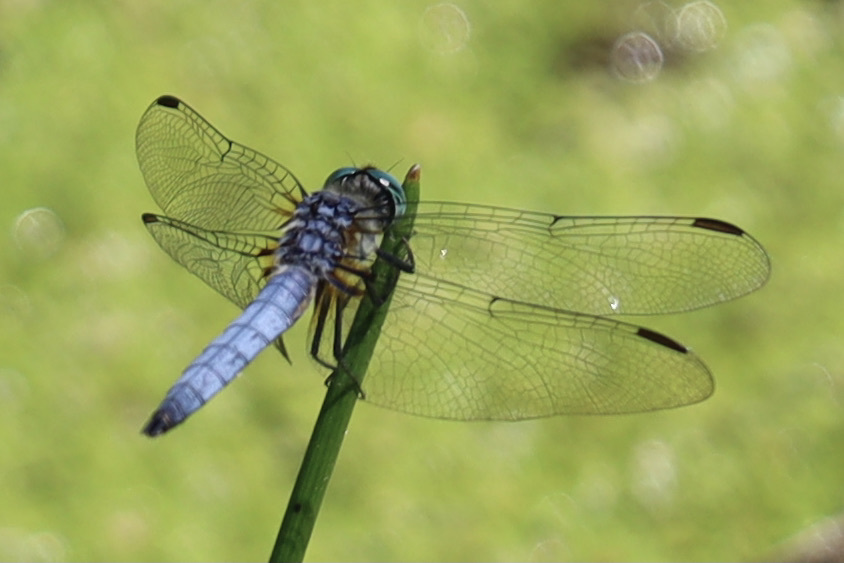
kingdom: Animalia
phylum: Arthropoda
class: Insecta
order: Odonata
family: Libellulidae
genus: Pachydiplax
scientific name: Pachydiplax longipennis
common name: Blue dasher
